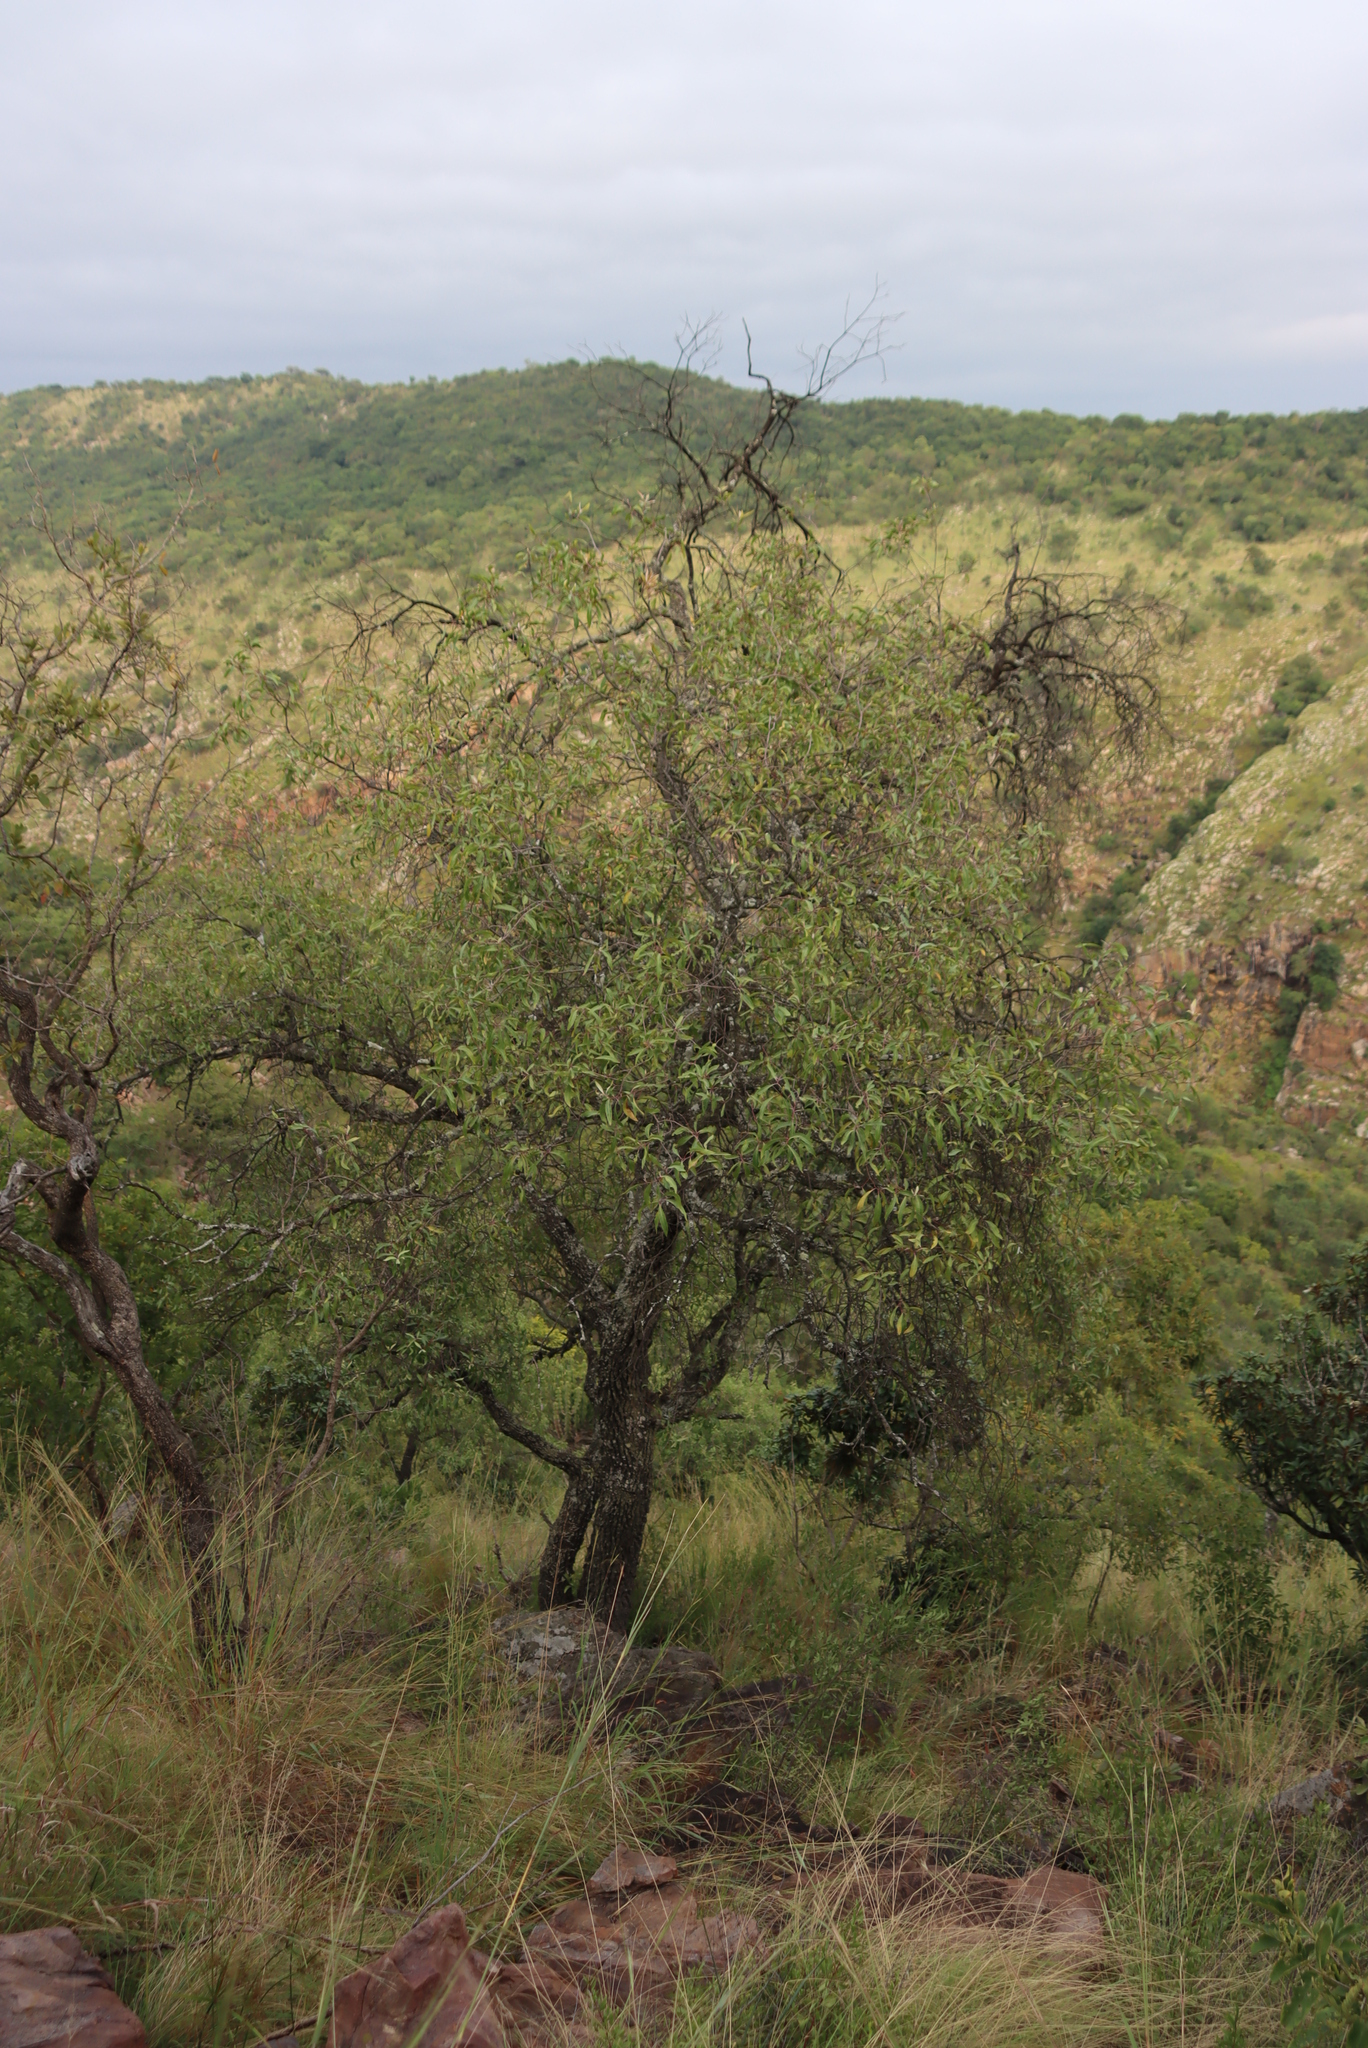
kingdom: Plantae
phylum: Tracheophyta
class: Magnoliopsida
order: Proteales
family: Proteaceae
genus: Faurea
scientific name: Faurea saligna
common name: African bean
